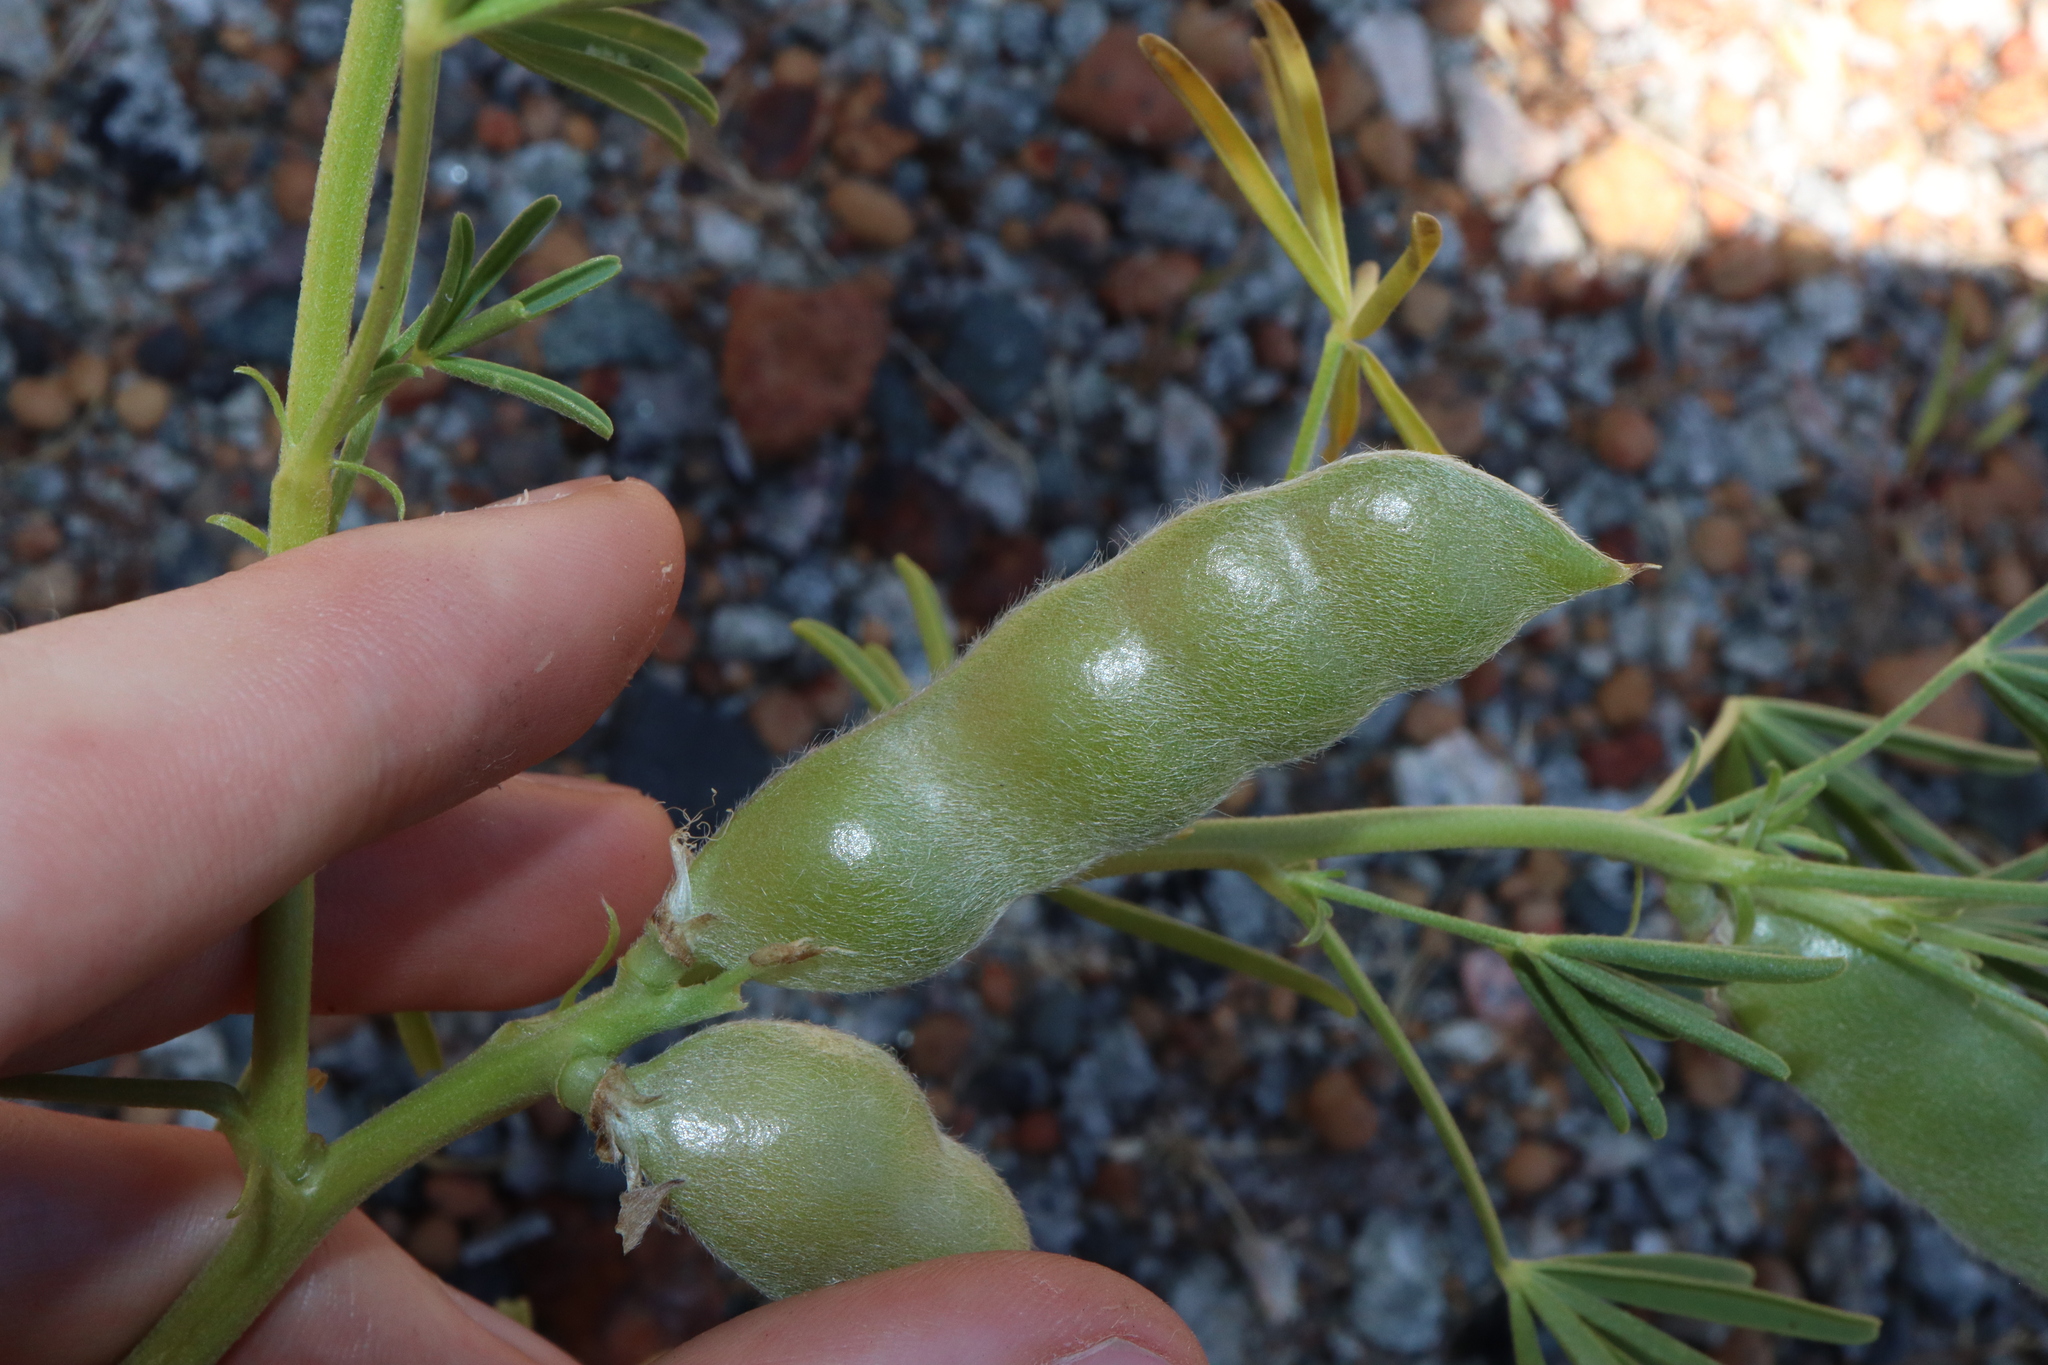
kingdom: Plantae
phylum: Tracheophyta
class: Magnoliopsida
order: Fabales
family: Fabaceae
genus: Lupinus
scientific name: Lupinus angustifolius
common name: Narrow-leaved lupin
